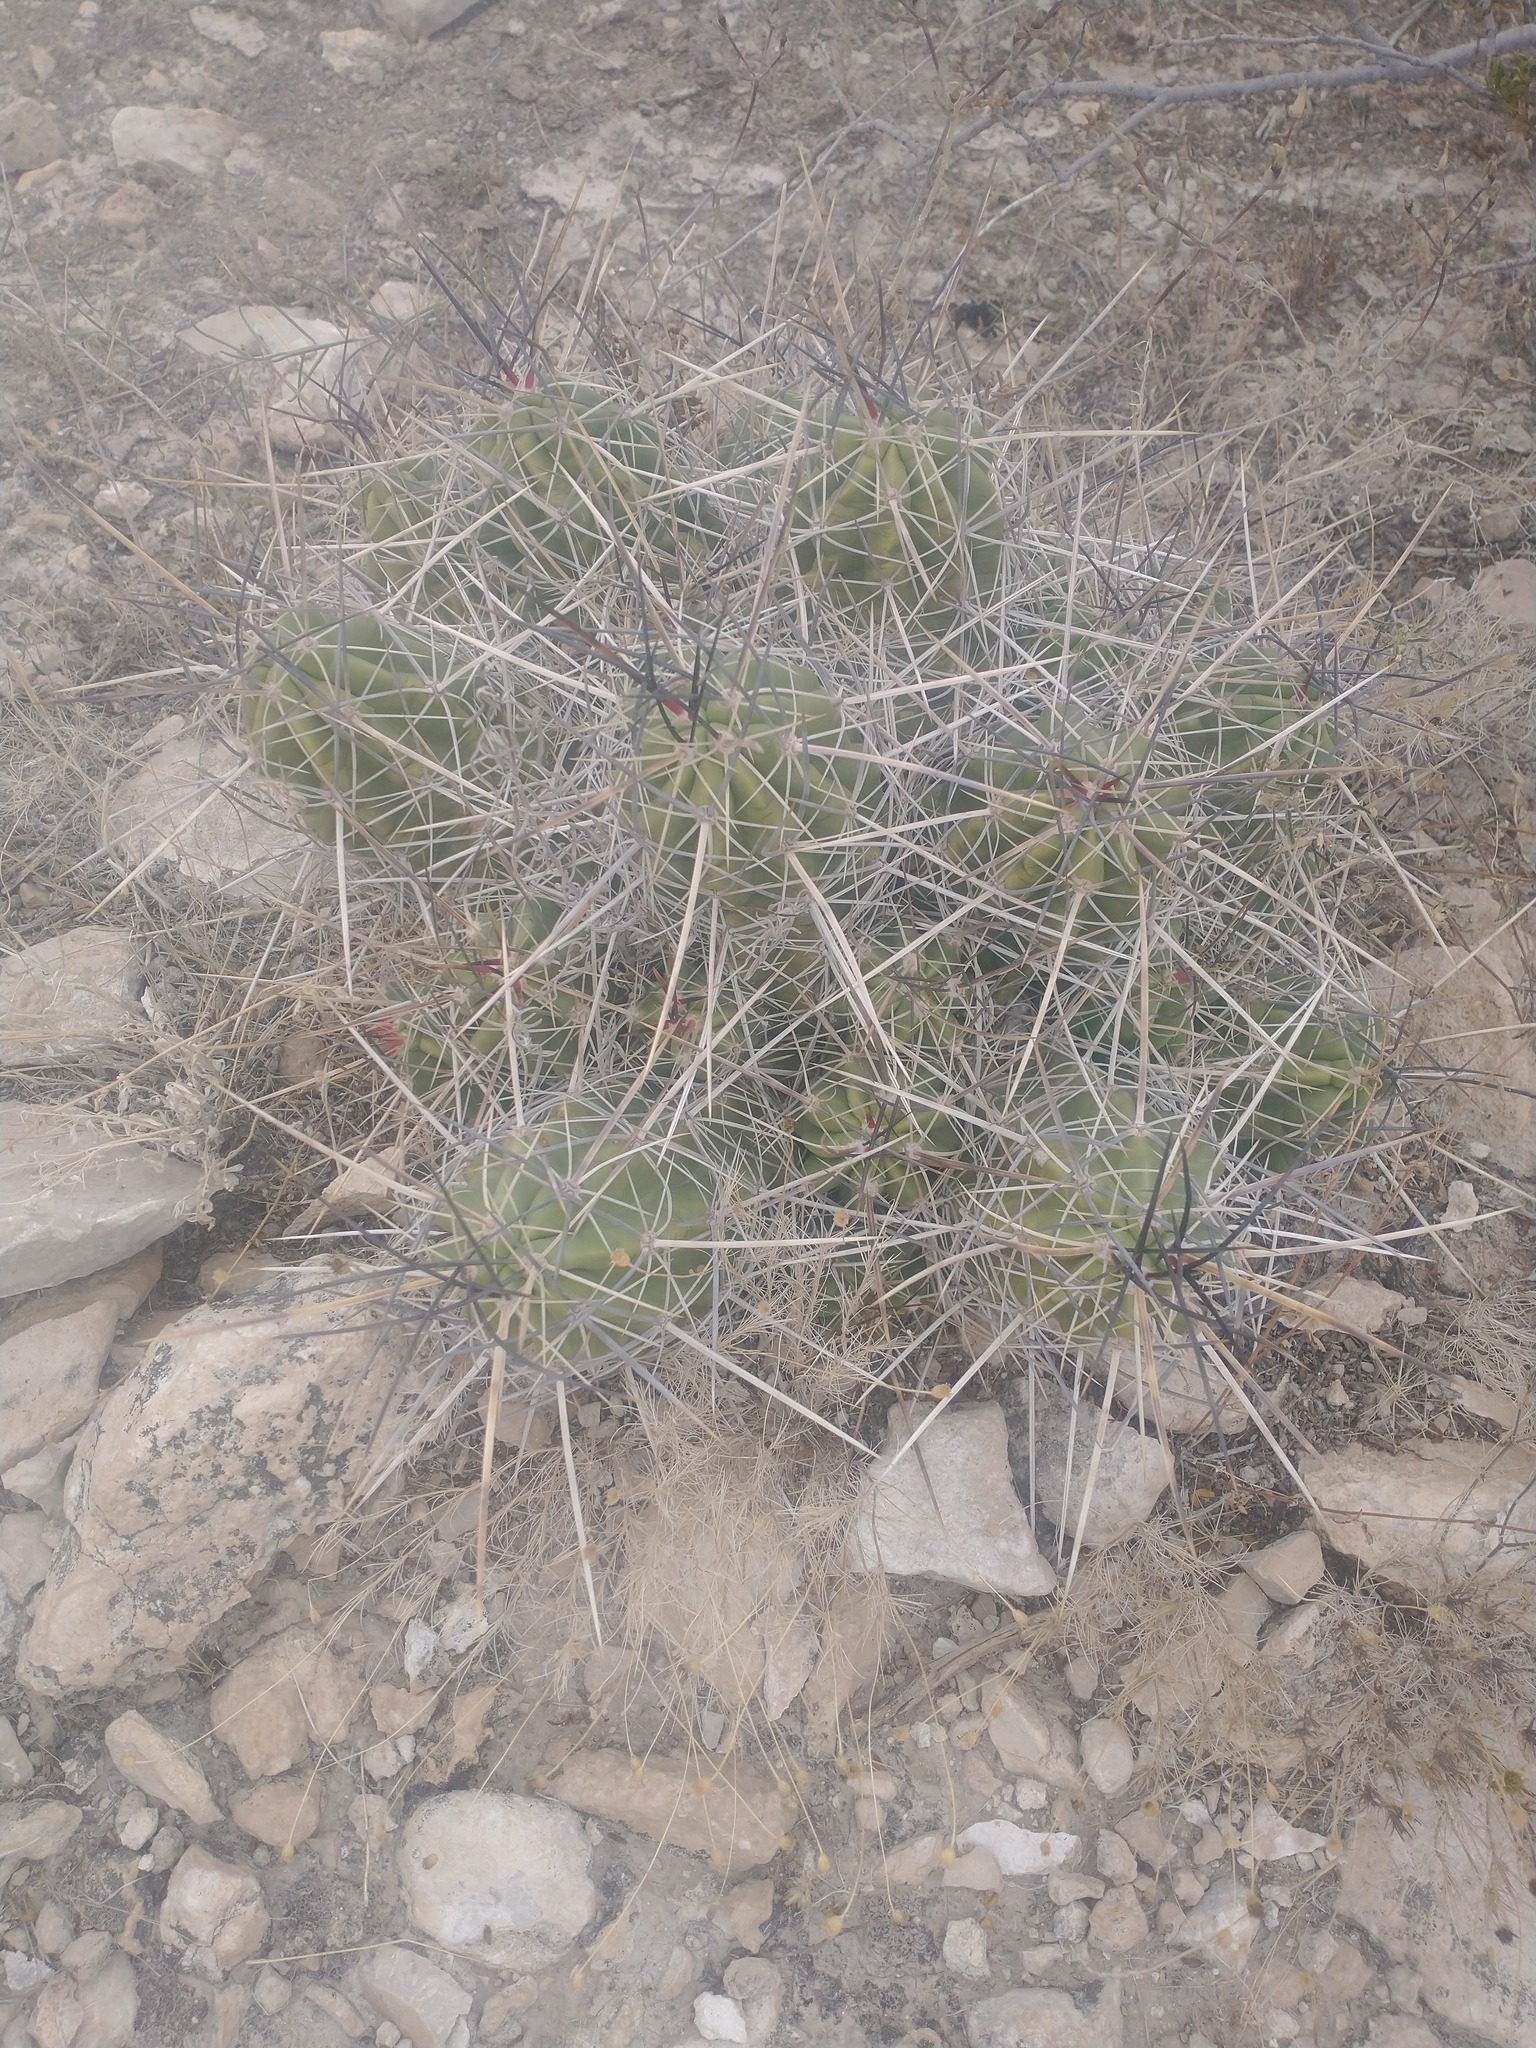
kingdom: Plantae
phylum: Tracheophyta
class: Magnoliopsida
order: Caryophyllales
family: Cactaceae
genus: Echinocereus
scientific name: Echinocereus enneacanthus
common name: Pitaya
